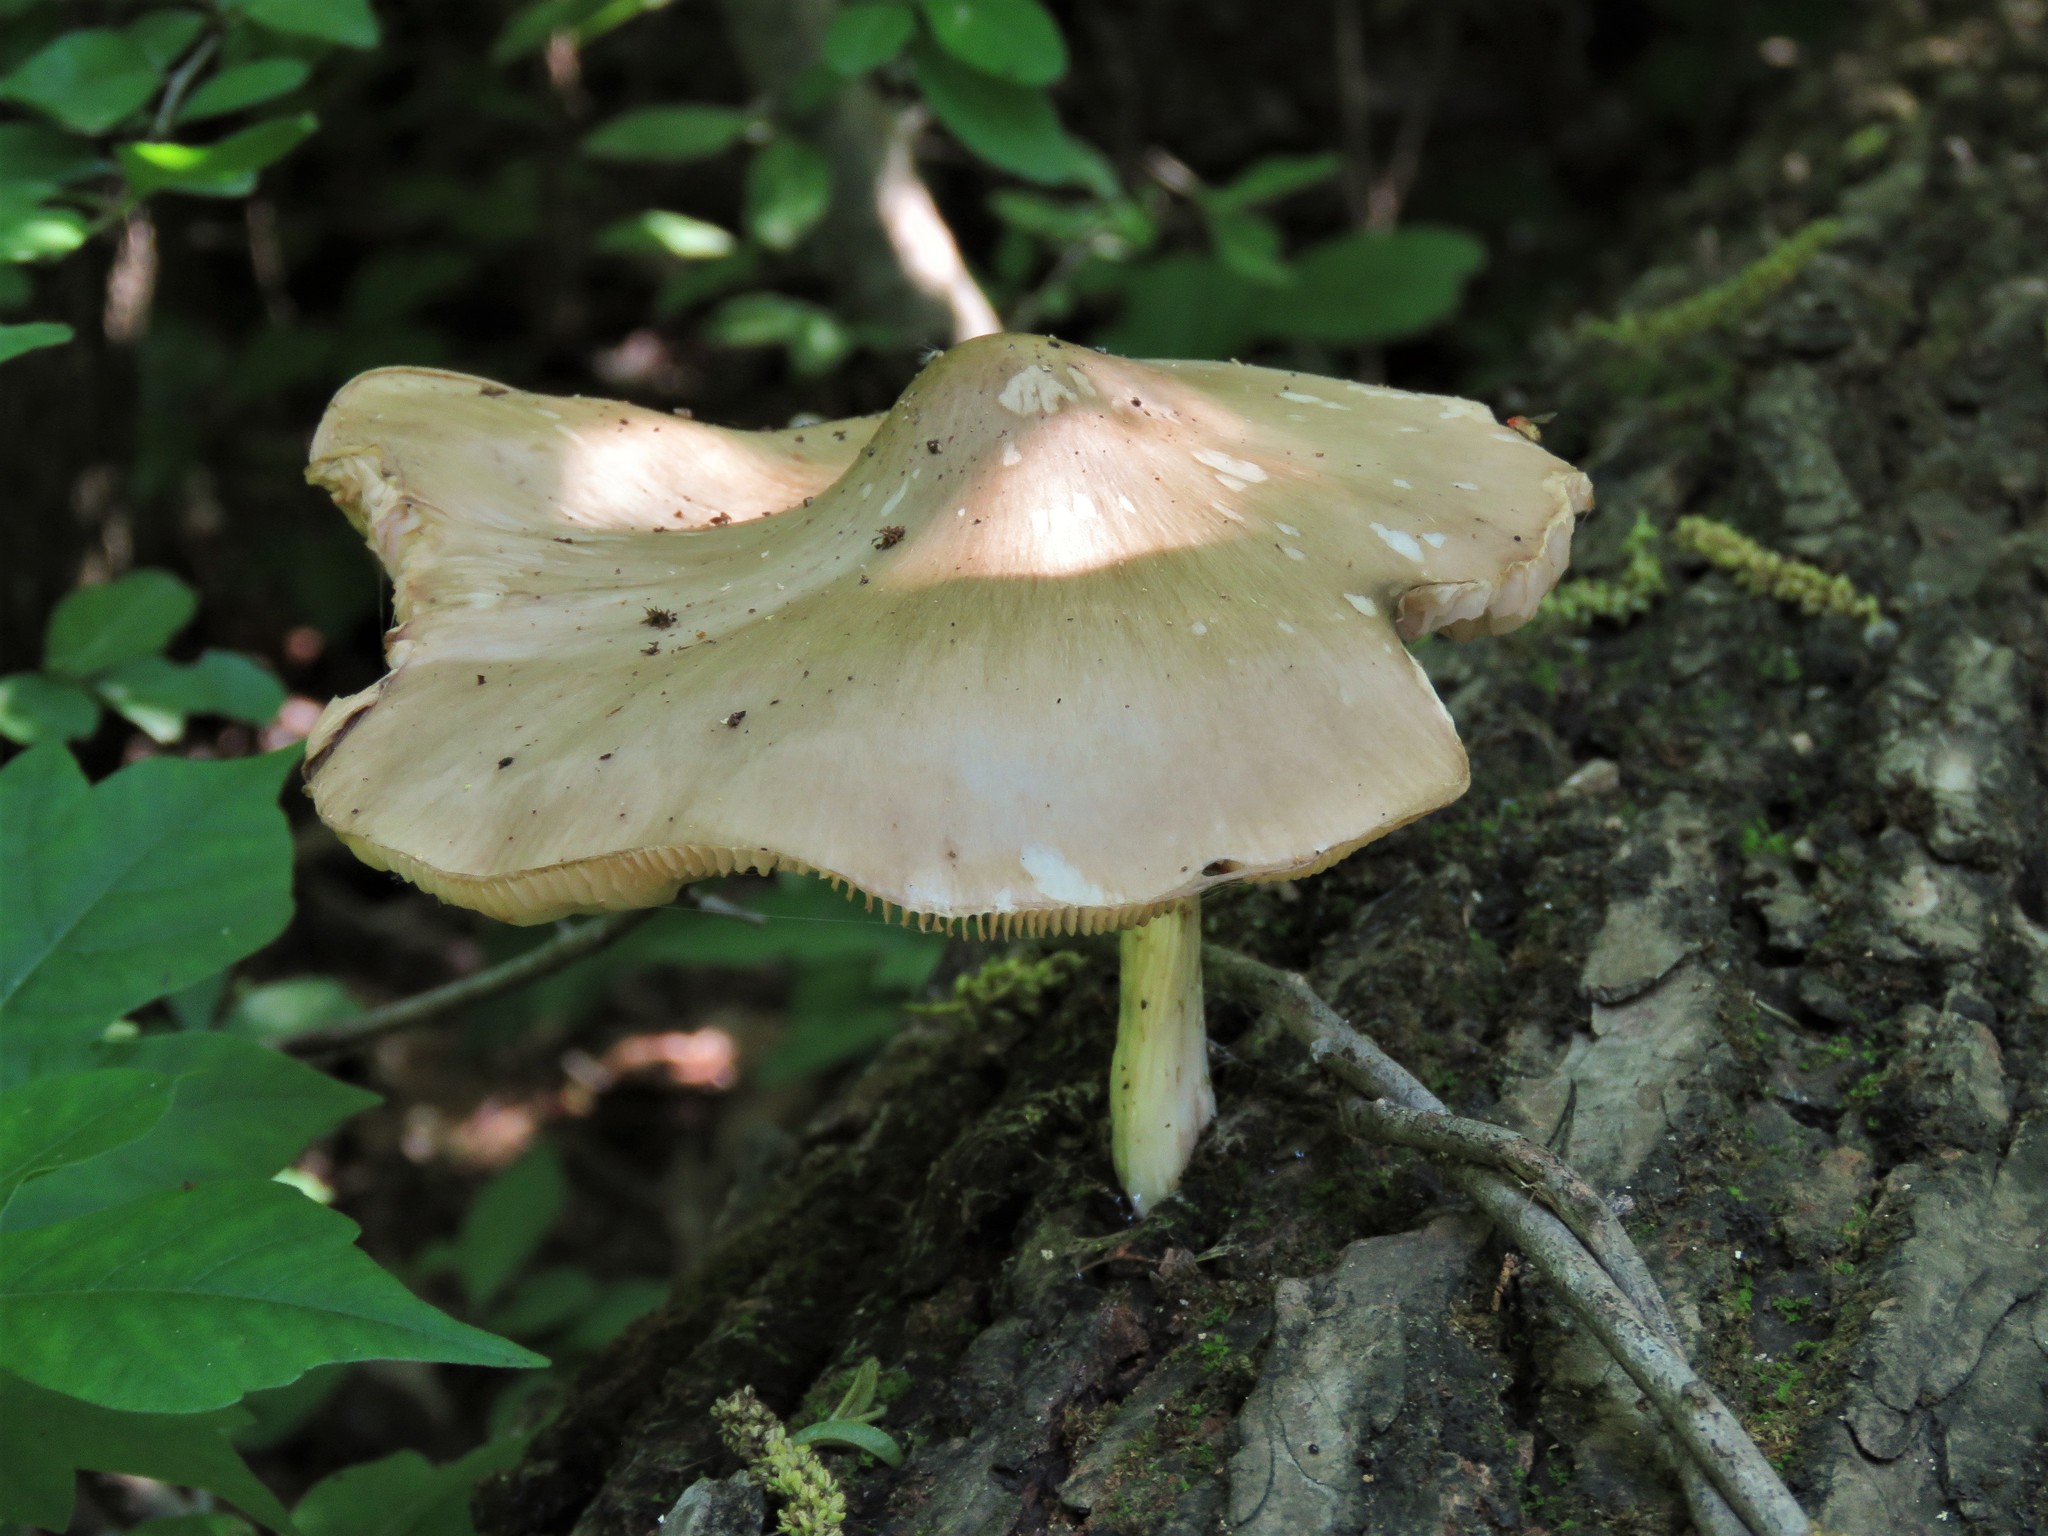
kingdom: Fungi
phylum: Basidiomycota
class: Agaricomycetes
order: Agaricales
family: Pluteaceae
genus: Pluteus
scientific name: Pluteus cervinus
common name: Deer shield
